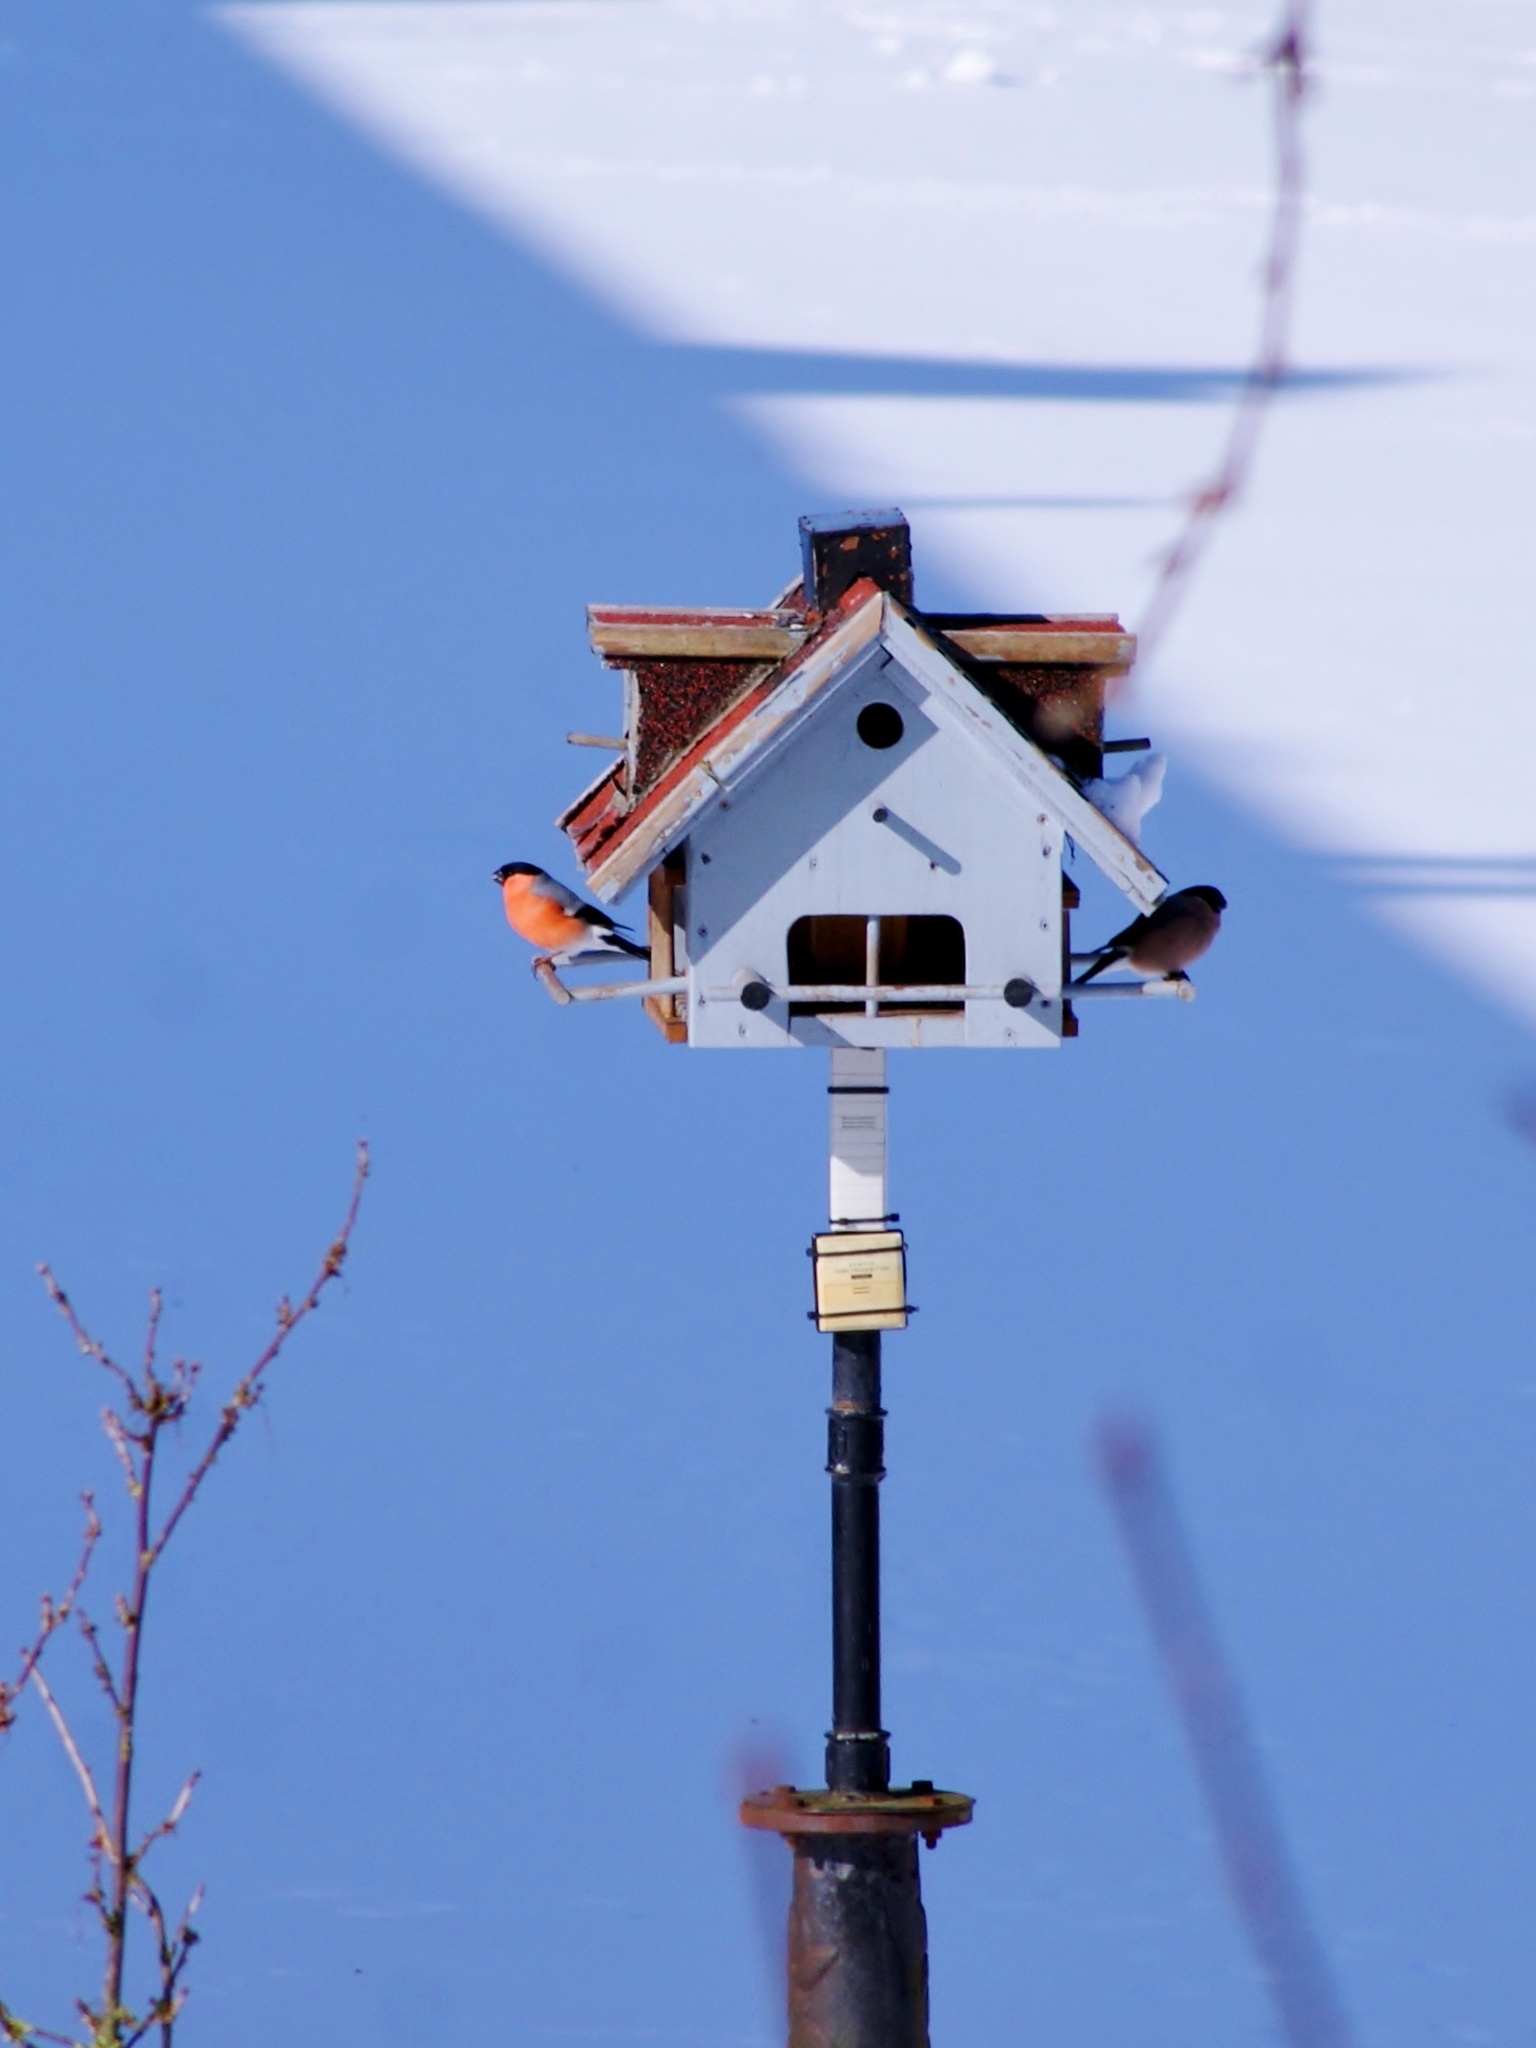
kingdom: Animalia
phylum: Chordata
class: Aves
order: Passeriformes
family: Fringillidae
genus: Pyrrhula
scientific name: Pyrrhula pyrrhula
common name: Eurasian bullfinch
